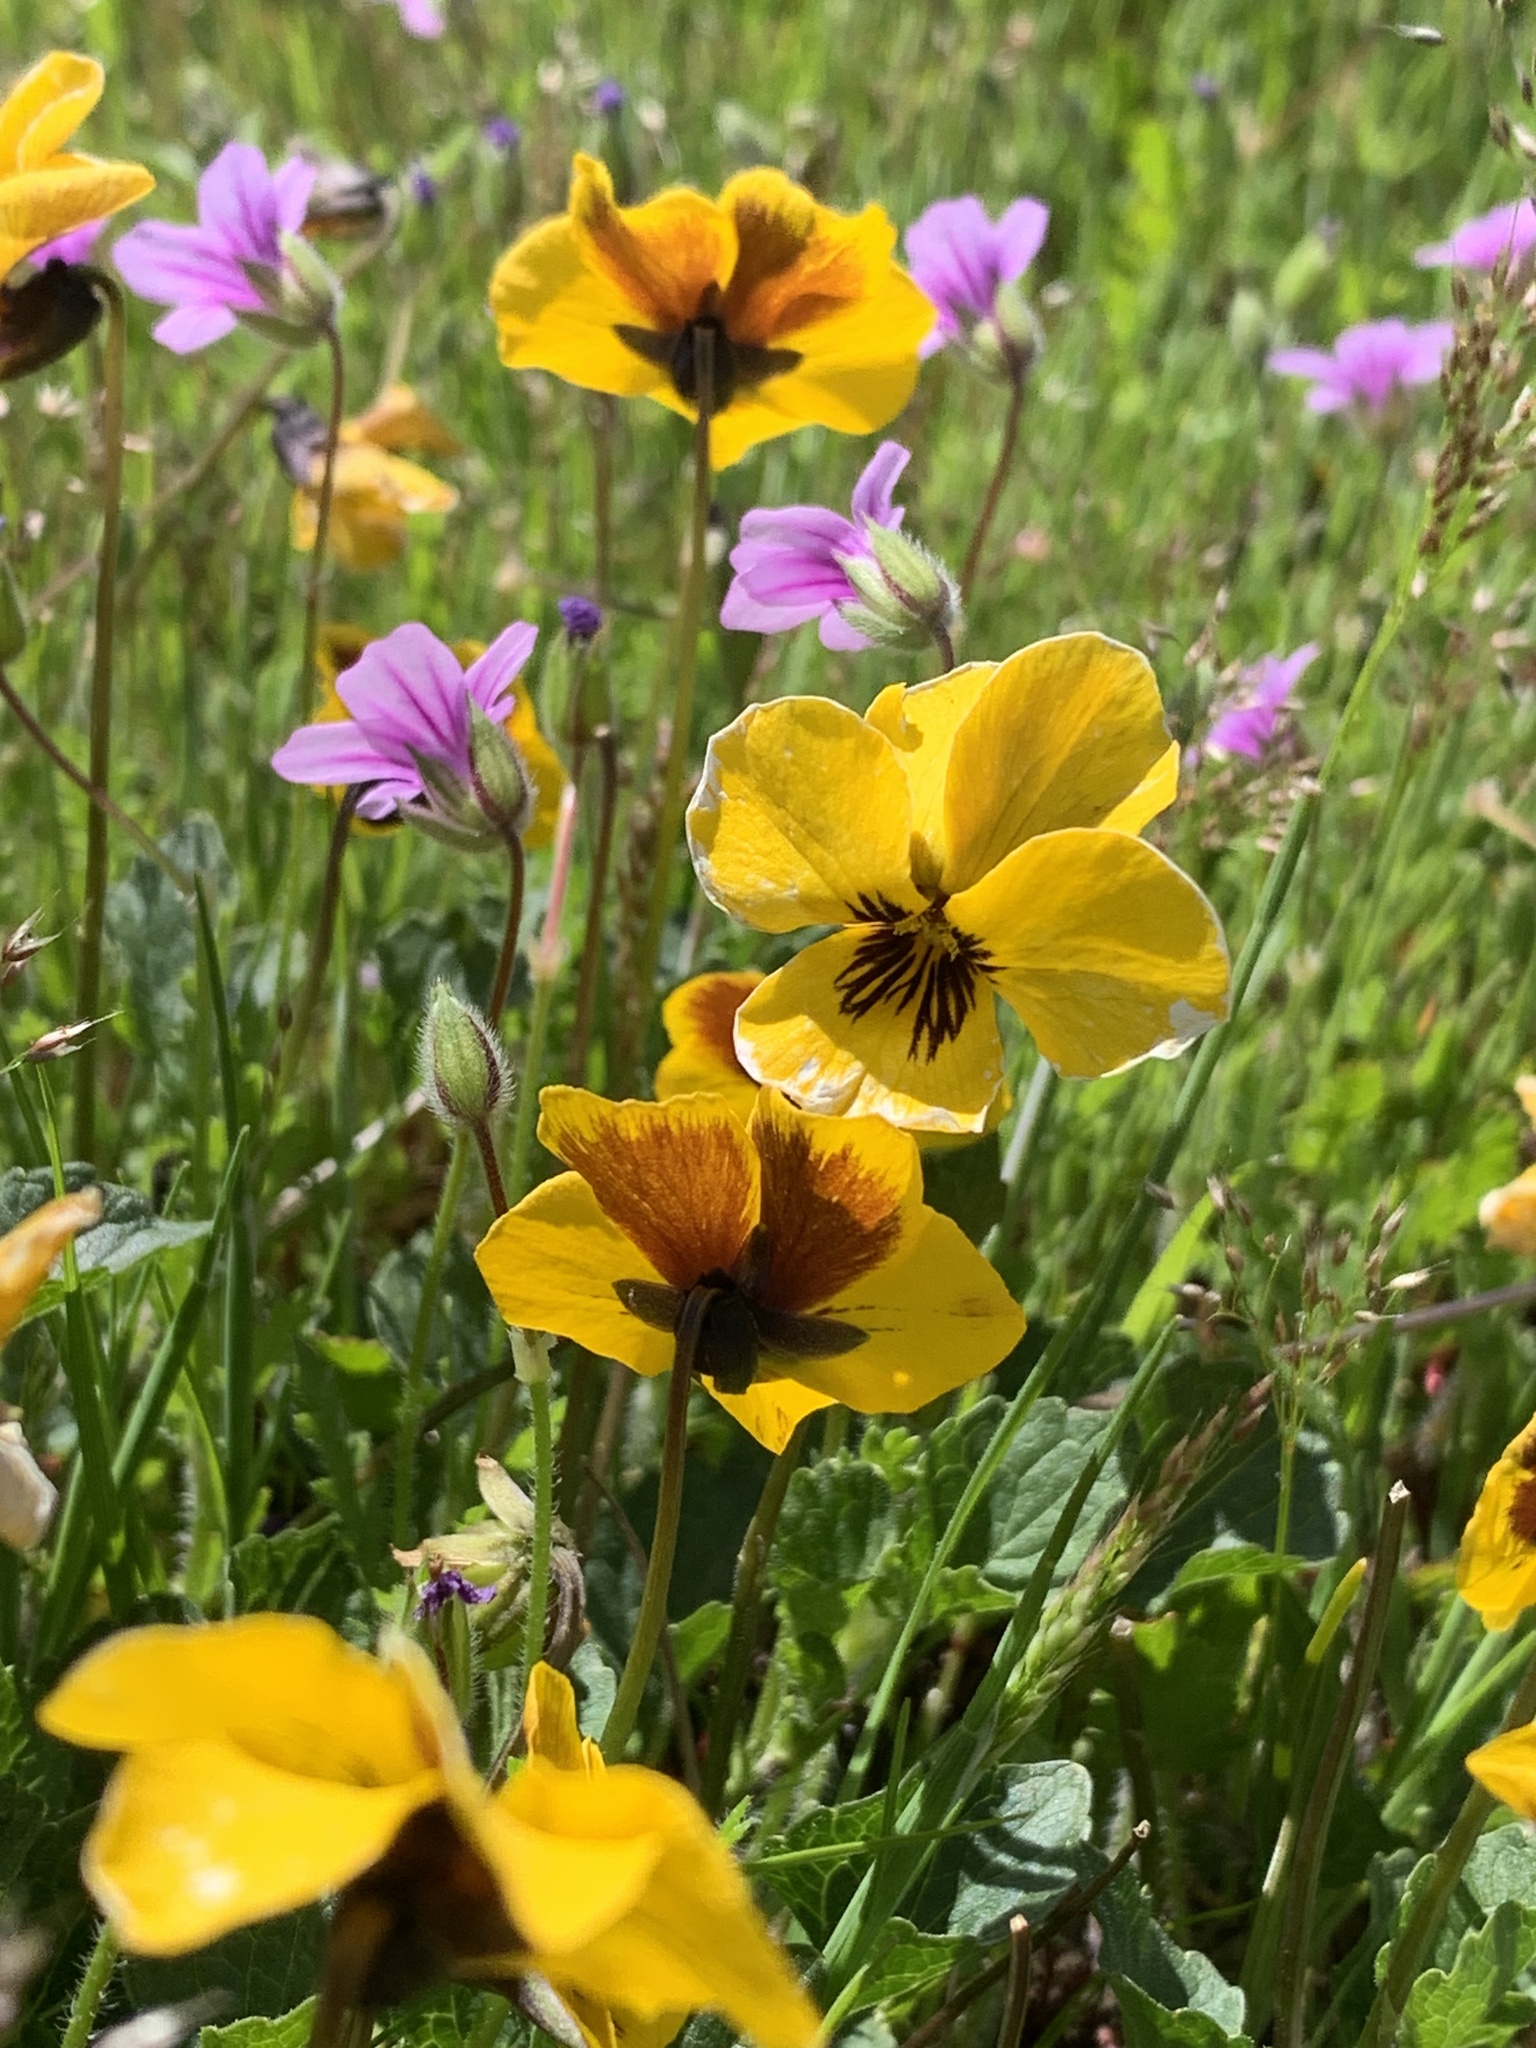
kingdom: Plantae
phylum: Tracheophyta
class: Magnoliopsida
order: Malpighiales
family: Violaceae
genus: Viola
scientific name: Viola pedunculata
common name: California golden violet
